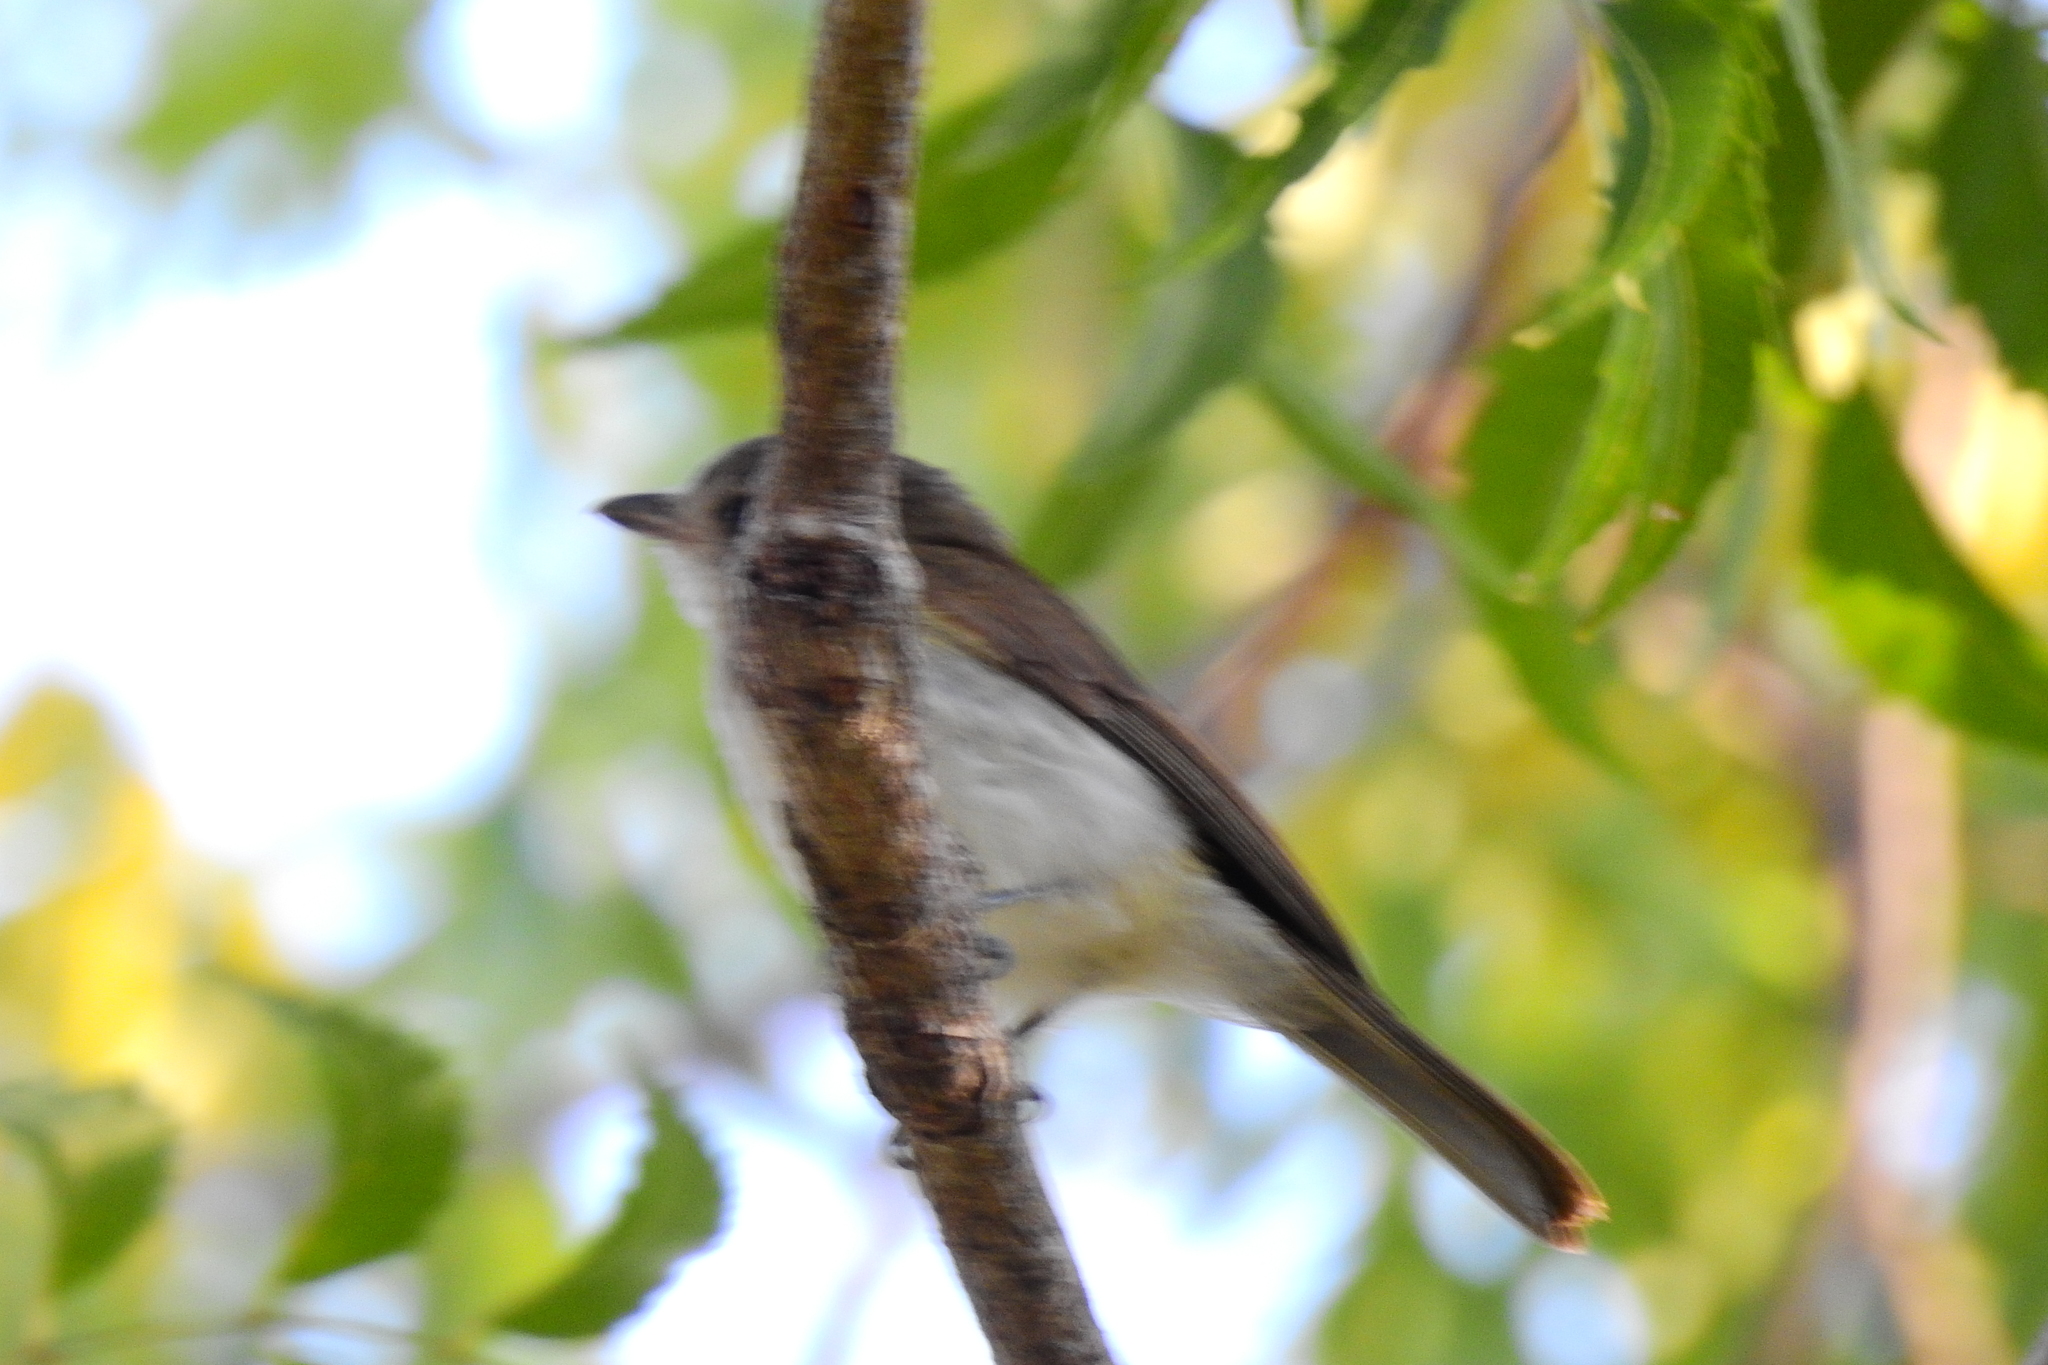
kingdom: Animalia
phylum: Chordata
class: Aves
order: Passeriformes
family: Pachycephalidae
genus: Pachycephala
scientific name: Pachycephala cinerea
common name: Mangrove whistler
